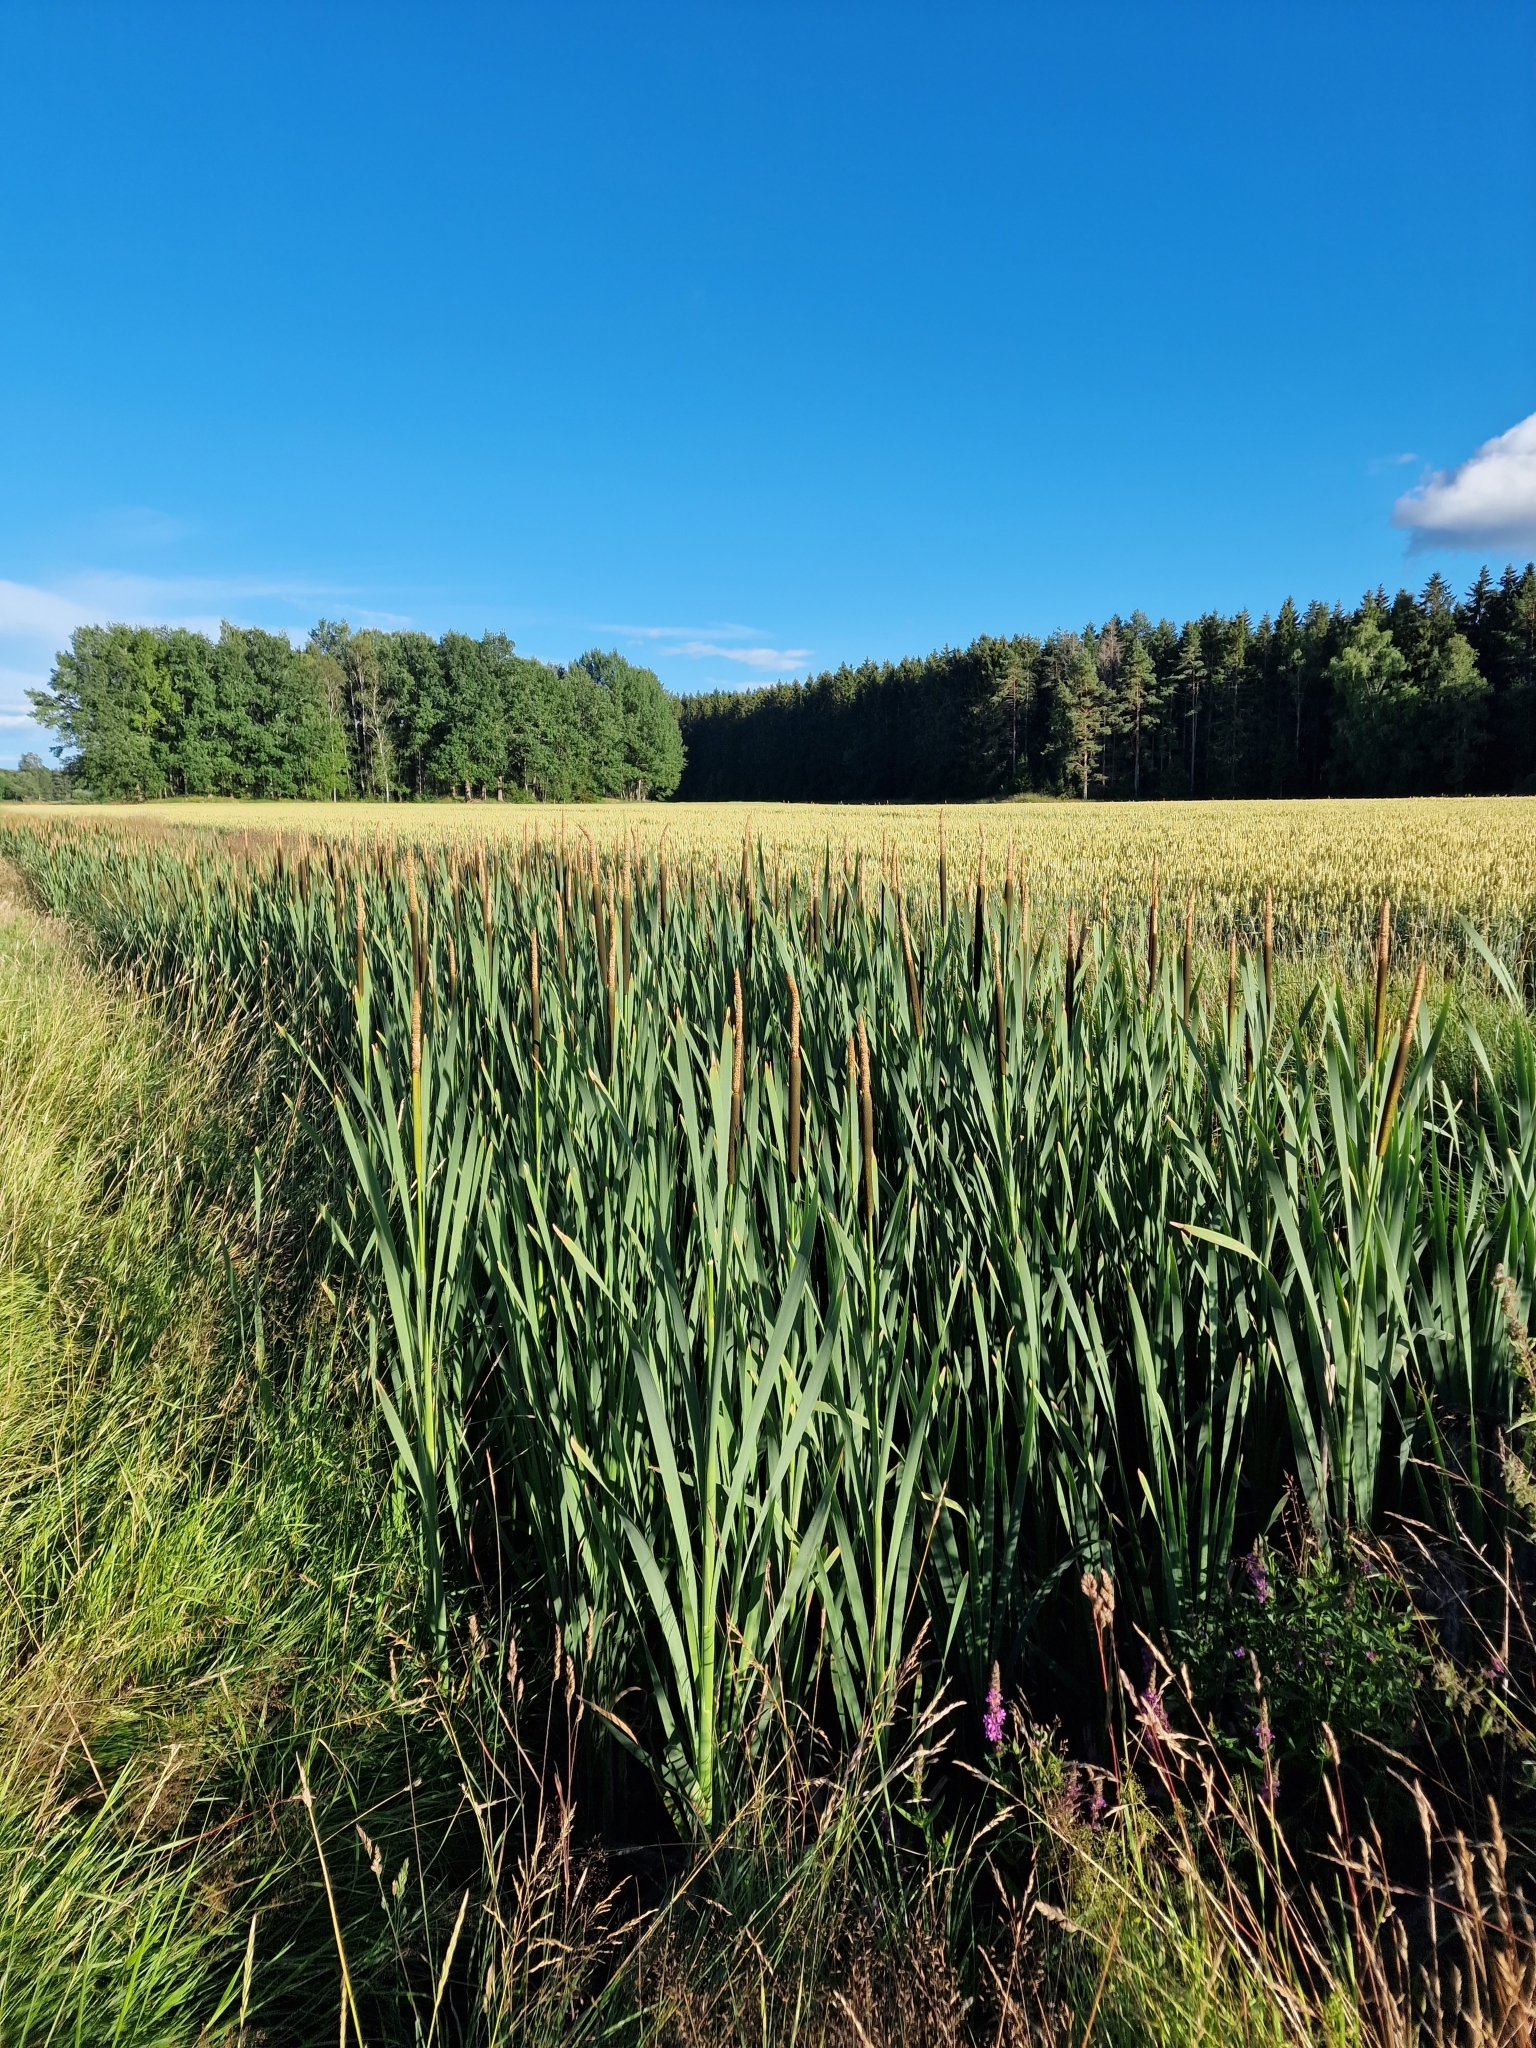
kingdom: Plantae
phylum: Tracheophyta
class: Liliopsida
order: Poales
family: Typhaceae
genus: Typha
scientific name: Typha latifolia
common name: Broadleaf cattail
